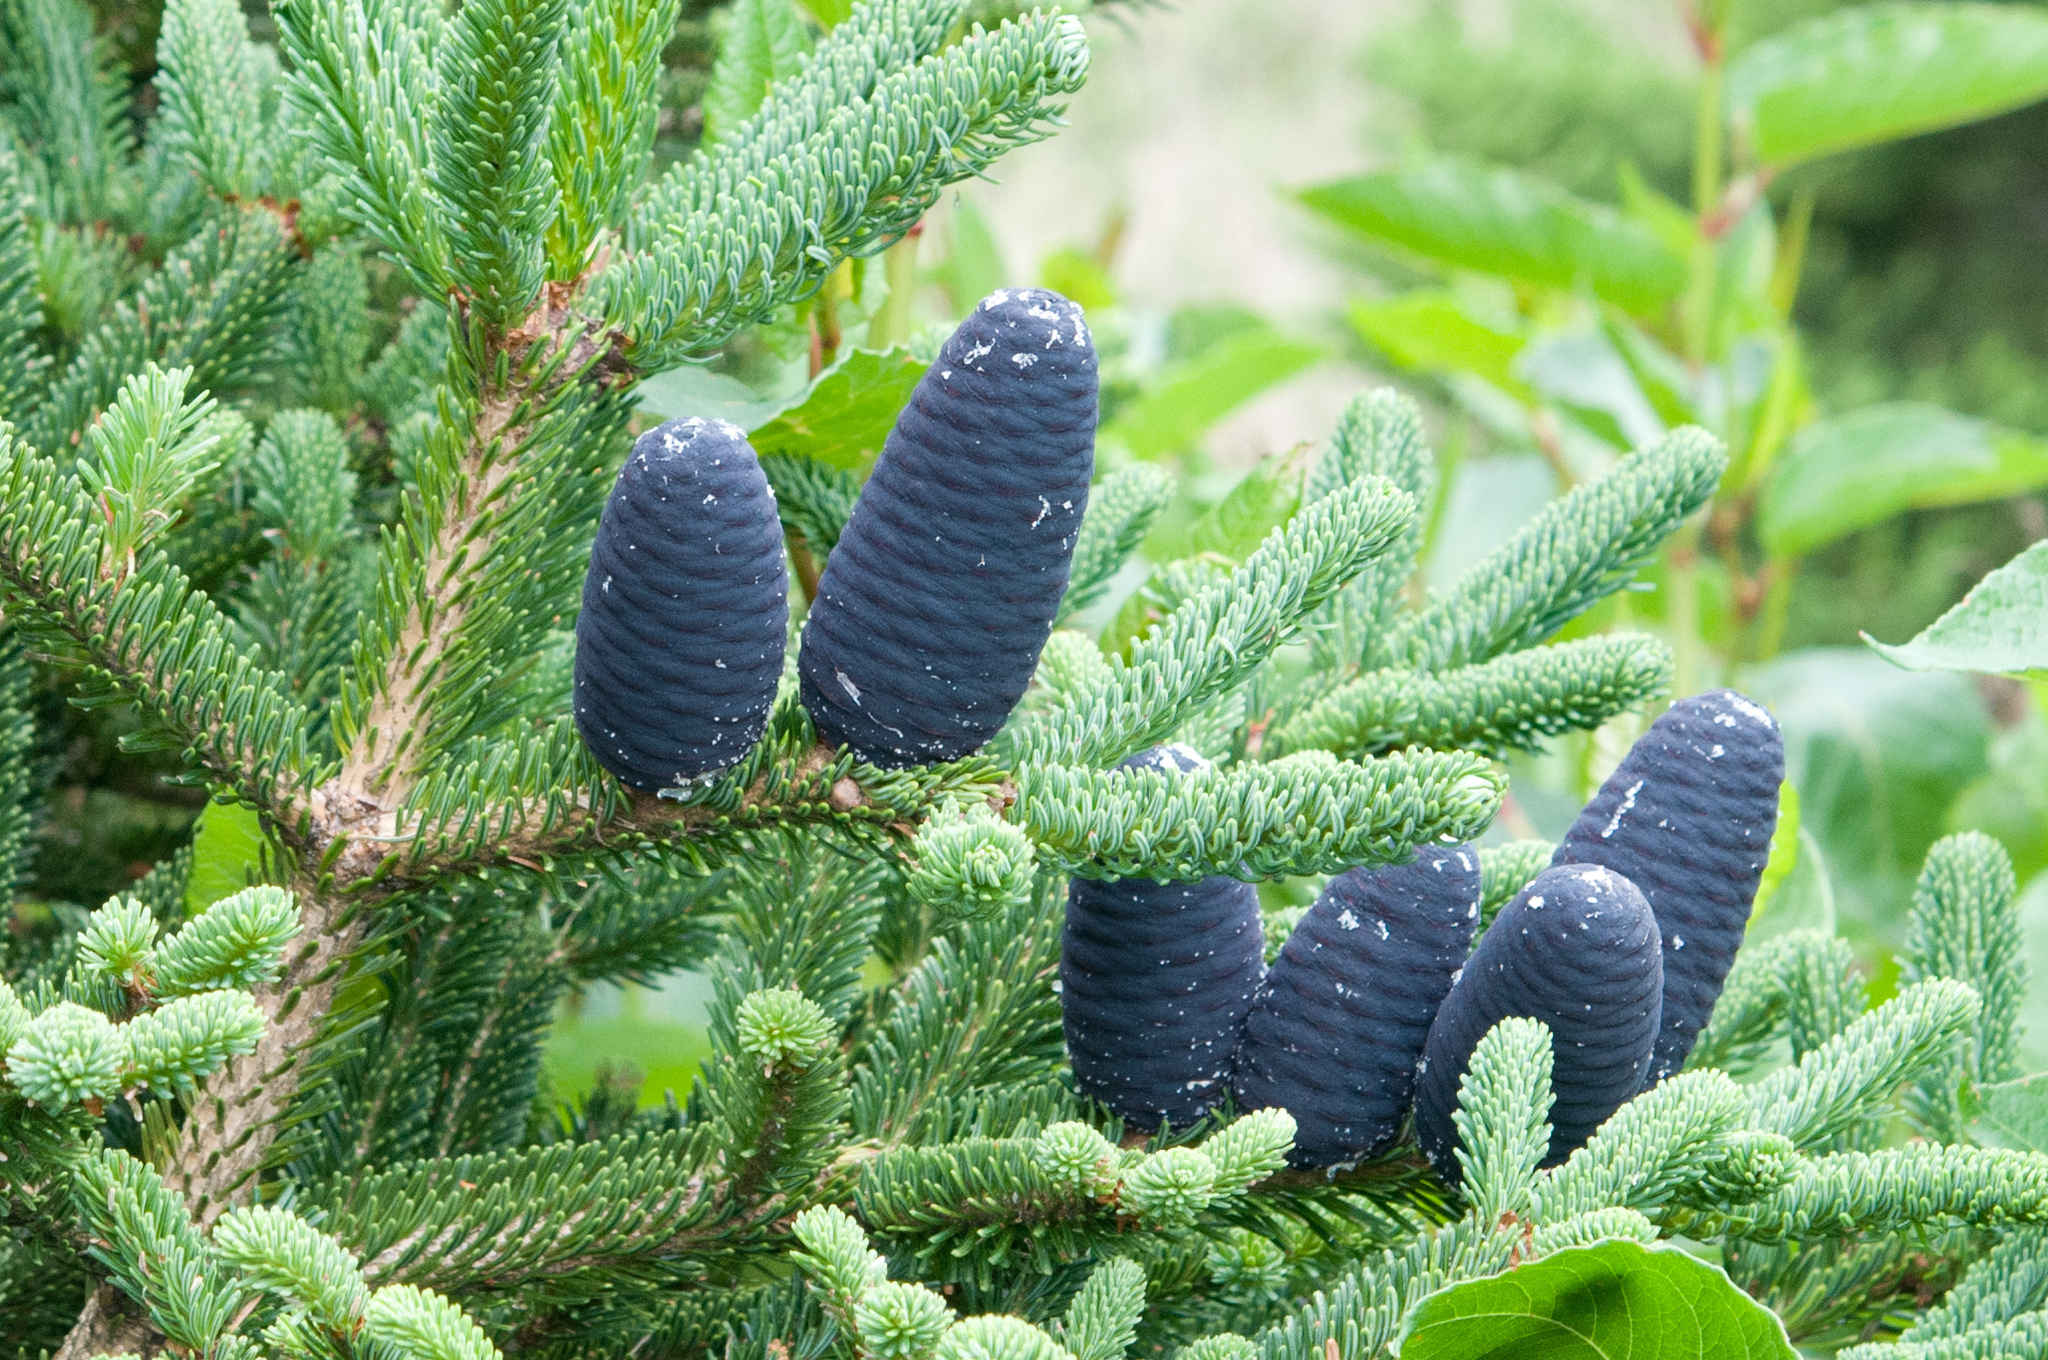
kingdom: Plantae
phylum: Tracheophyta
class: Pinopsida
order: Pinales
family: Pinaceae
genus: Abies
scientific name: Abies kawakamii
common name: Taiwan fir
